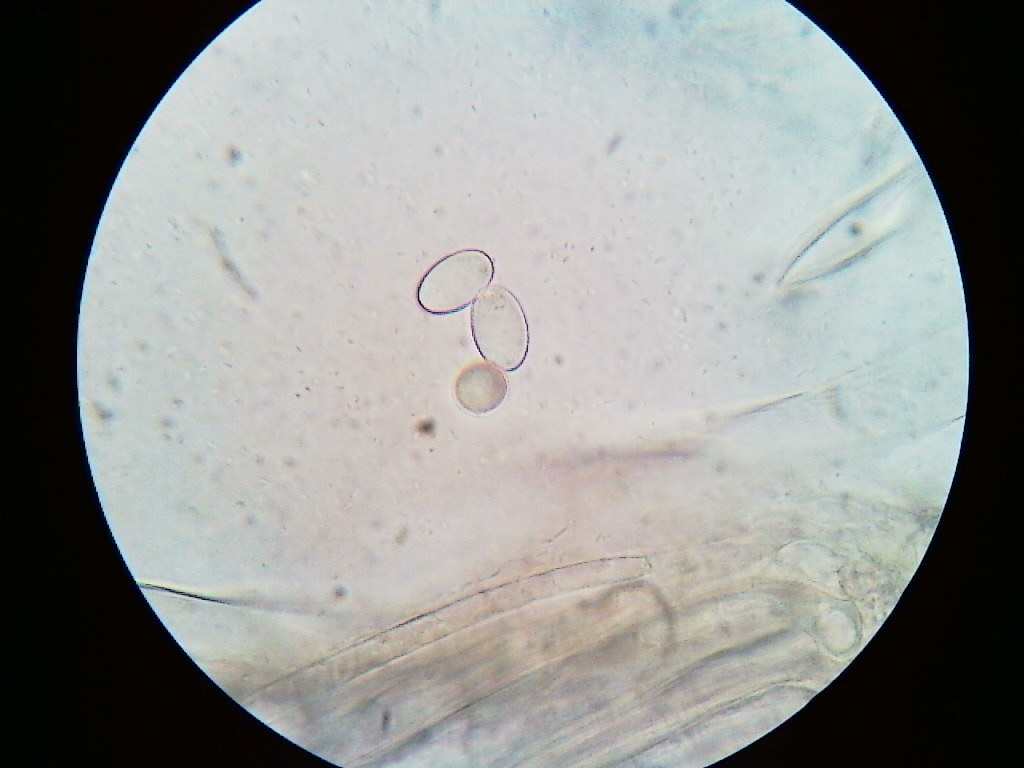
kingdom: Fungi
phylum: Ascomycota
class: Pezizomycetes
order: Pezizales
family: Pezizaceae
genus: Peziza
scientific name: Peziza varia
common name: Layered cup
